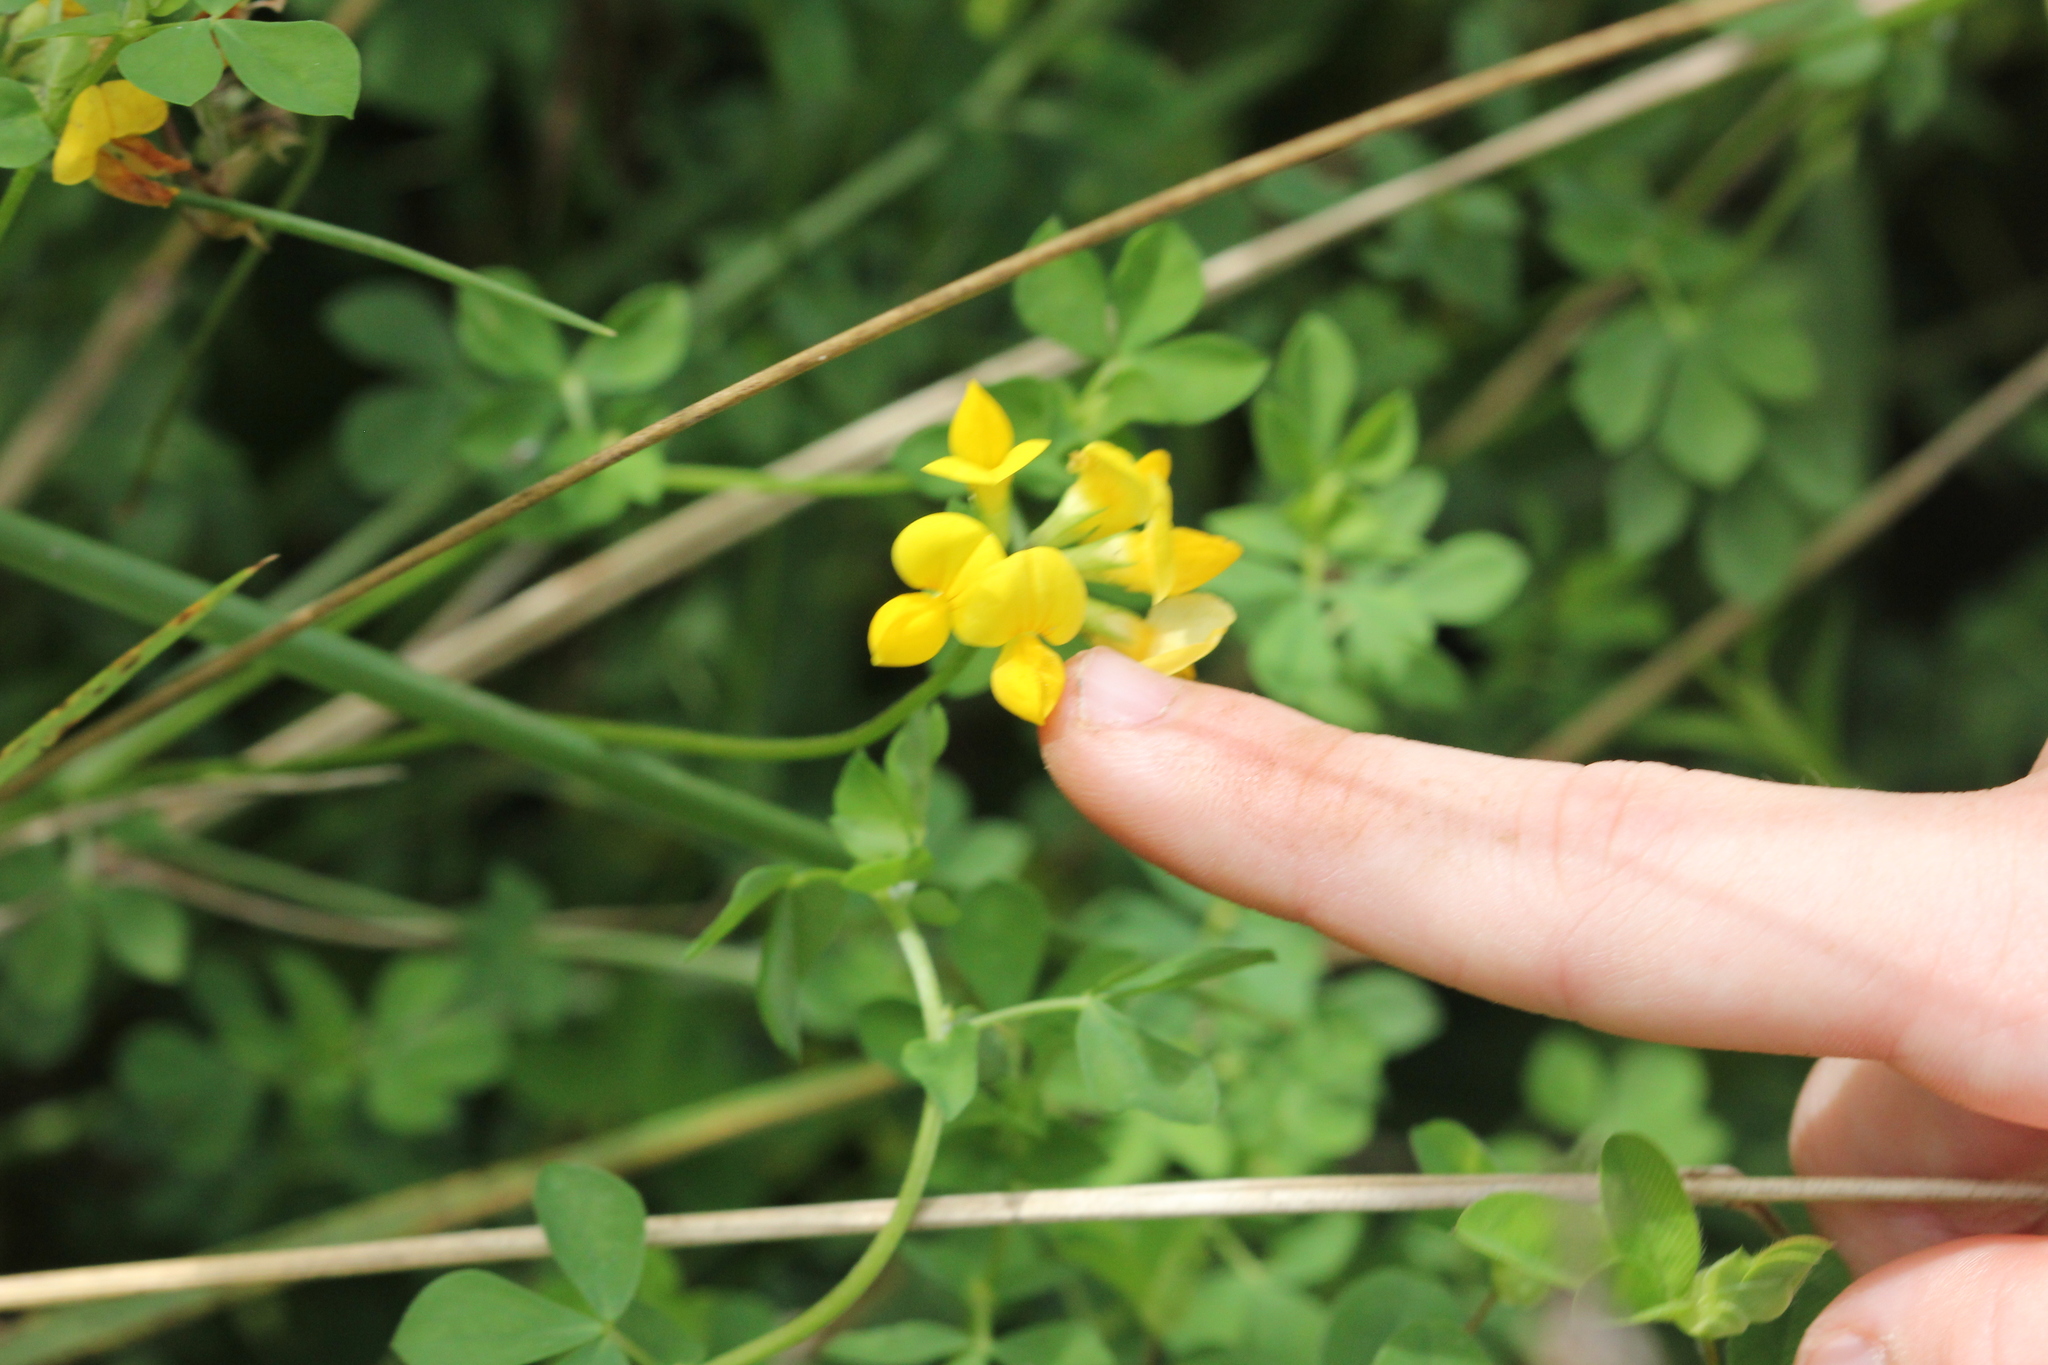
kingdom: Plantae
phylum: Tracheophyta
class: Magnoliopsida
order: Fabales
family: Fabaceae
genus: Lotus
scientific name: Lotus corniculatus
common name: Common bird's-foot-trefoil
